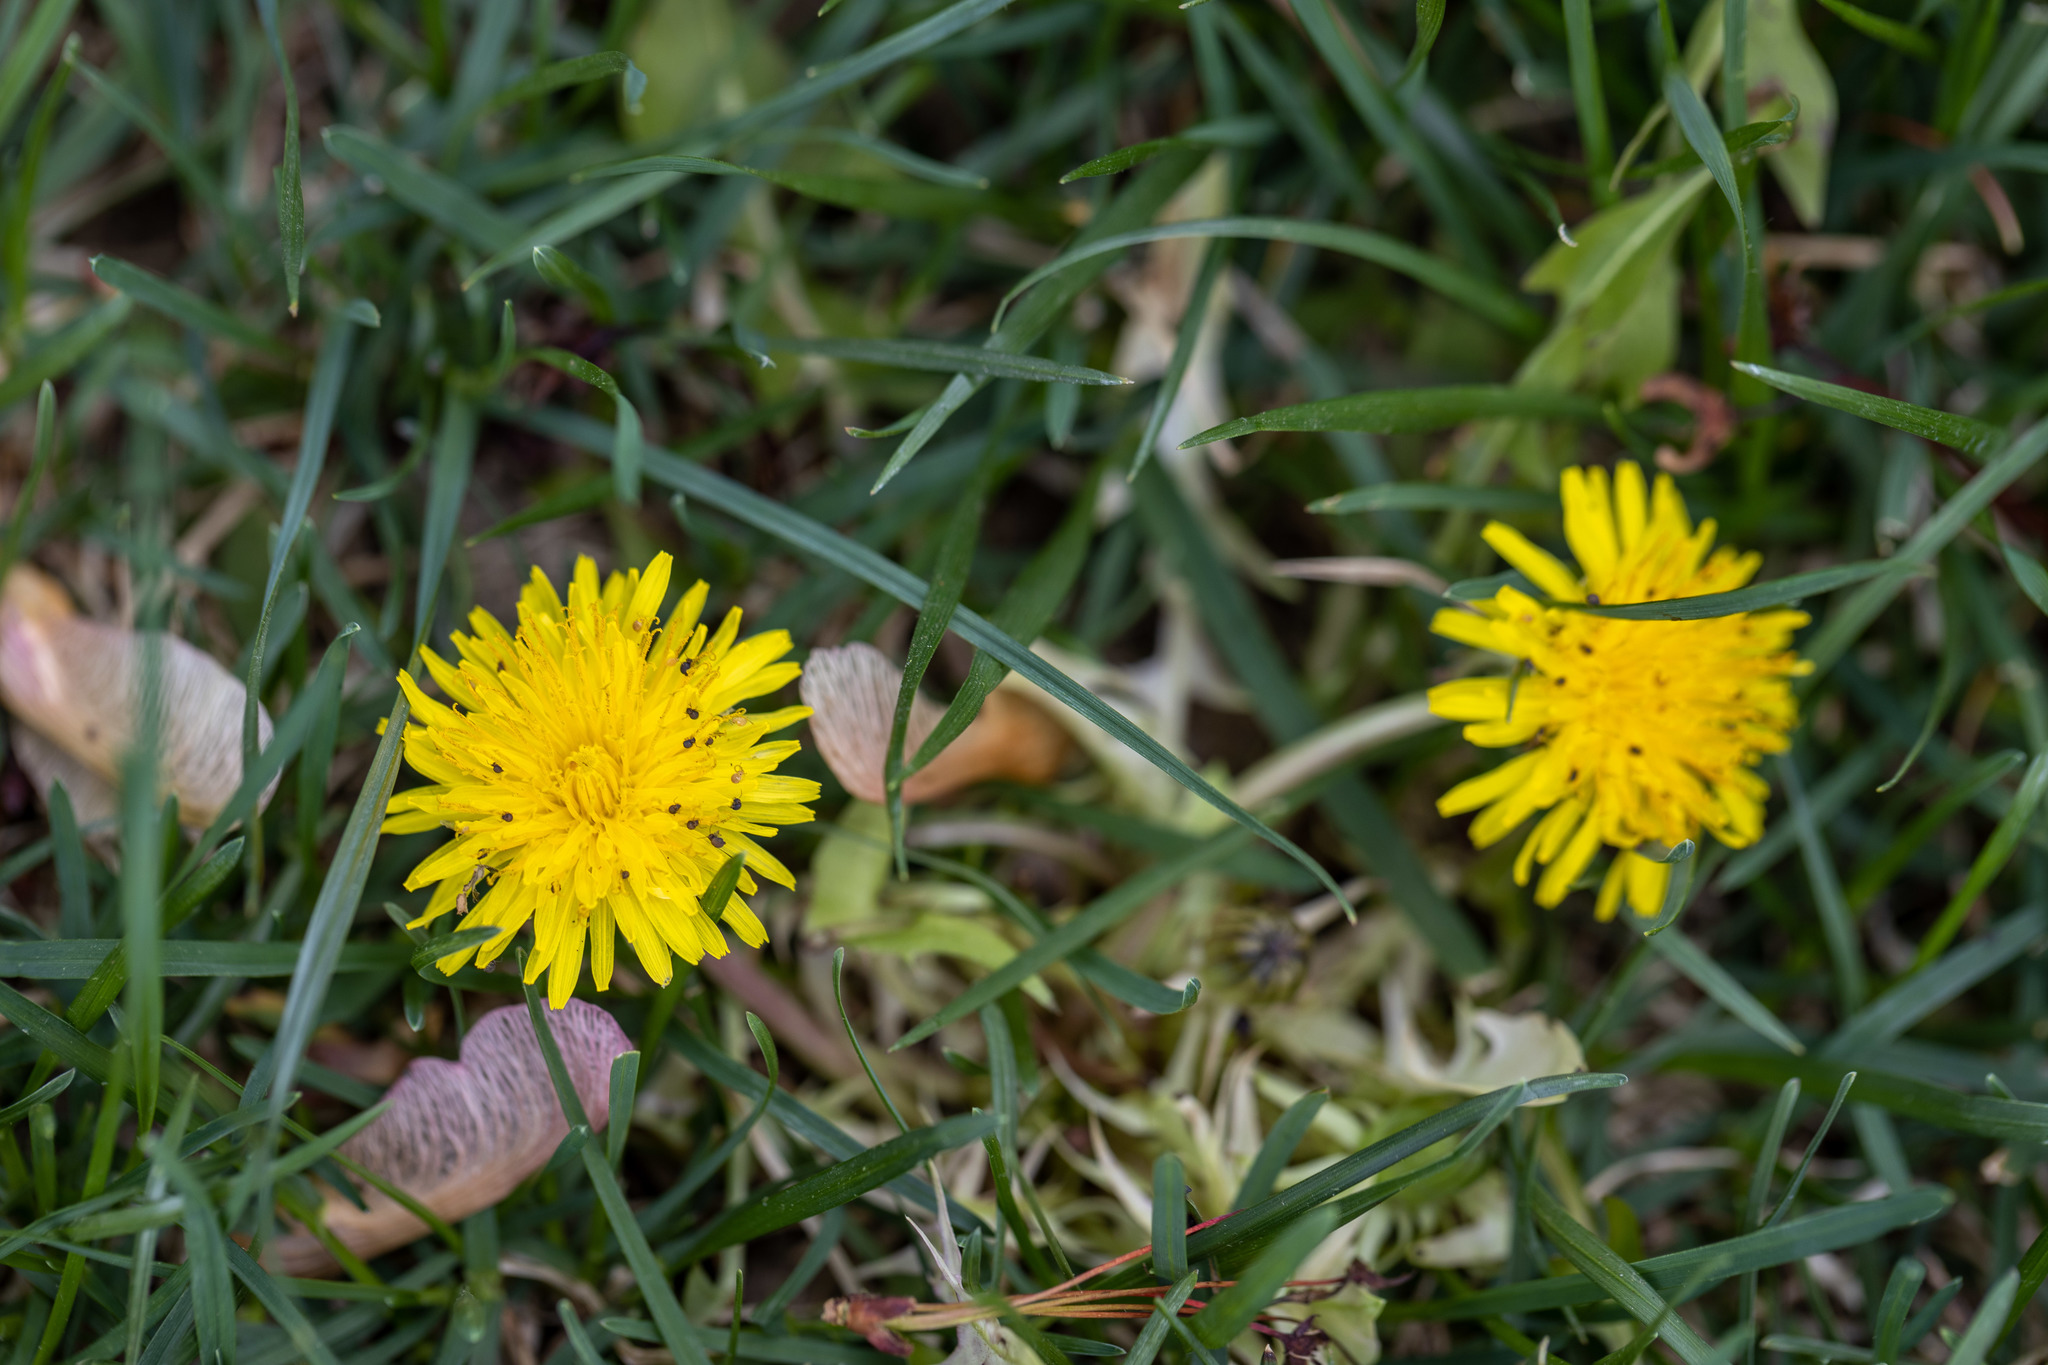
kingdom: Plantae
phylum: Tracheophyta
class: Magnoliopsida
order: Asterales
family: Asteraceae
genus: Taraxacum
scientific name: Taraxacum
